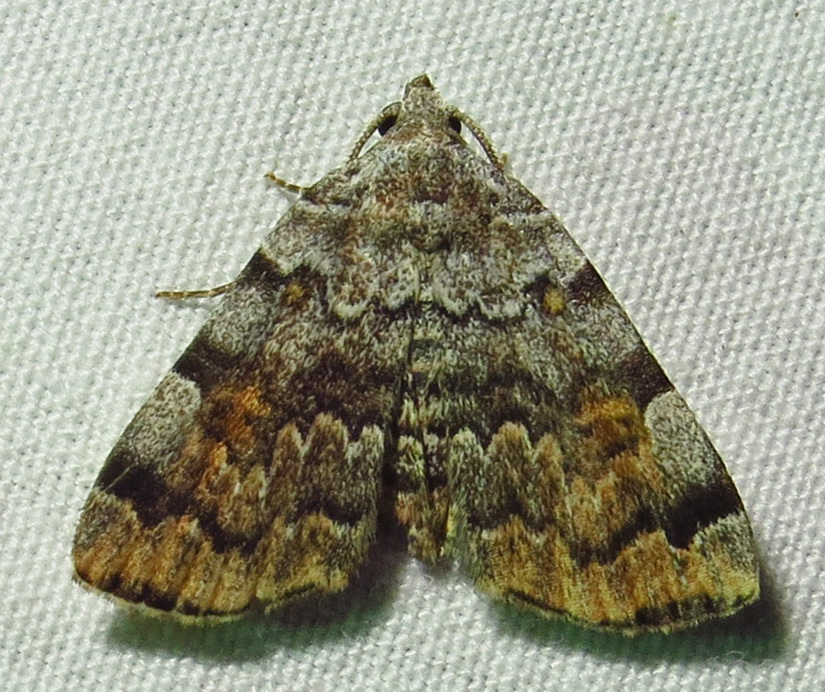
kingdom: Animalia
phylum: Arthropoda
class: Insecta
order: Lepidoptera
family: Erebidae
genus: Idia
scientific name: Idia americalis
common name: American idia moth
